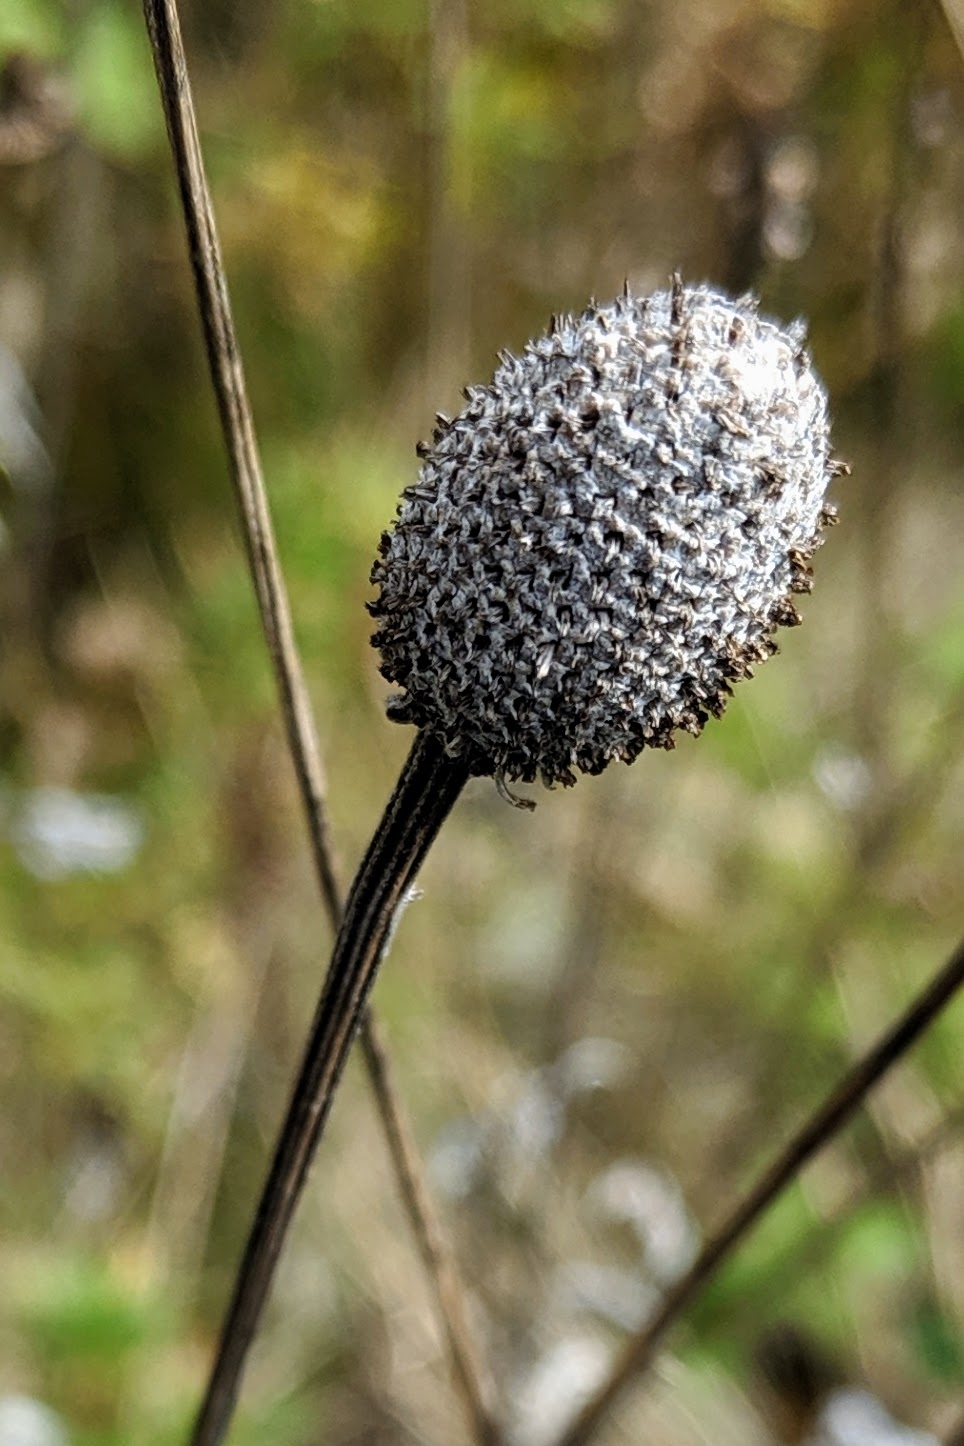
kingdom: Plantae
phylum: Tracheophyta
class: Magnoliopsida
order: Asterales
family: Asteraceae
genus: Ratibida
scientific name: Ratibida pinnata
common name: Drooping prairie-coneflower
